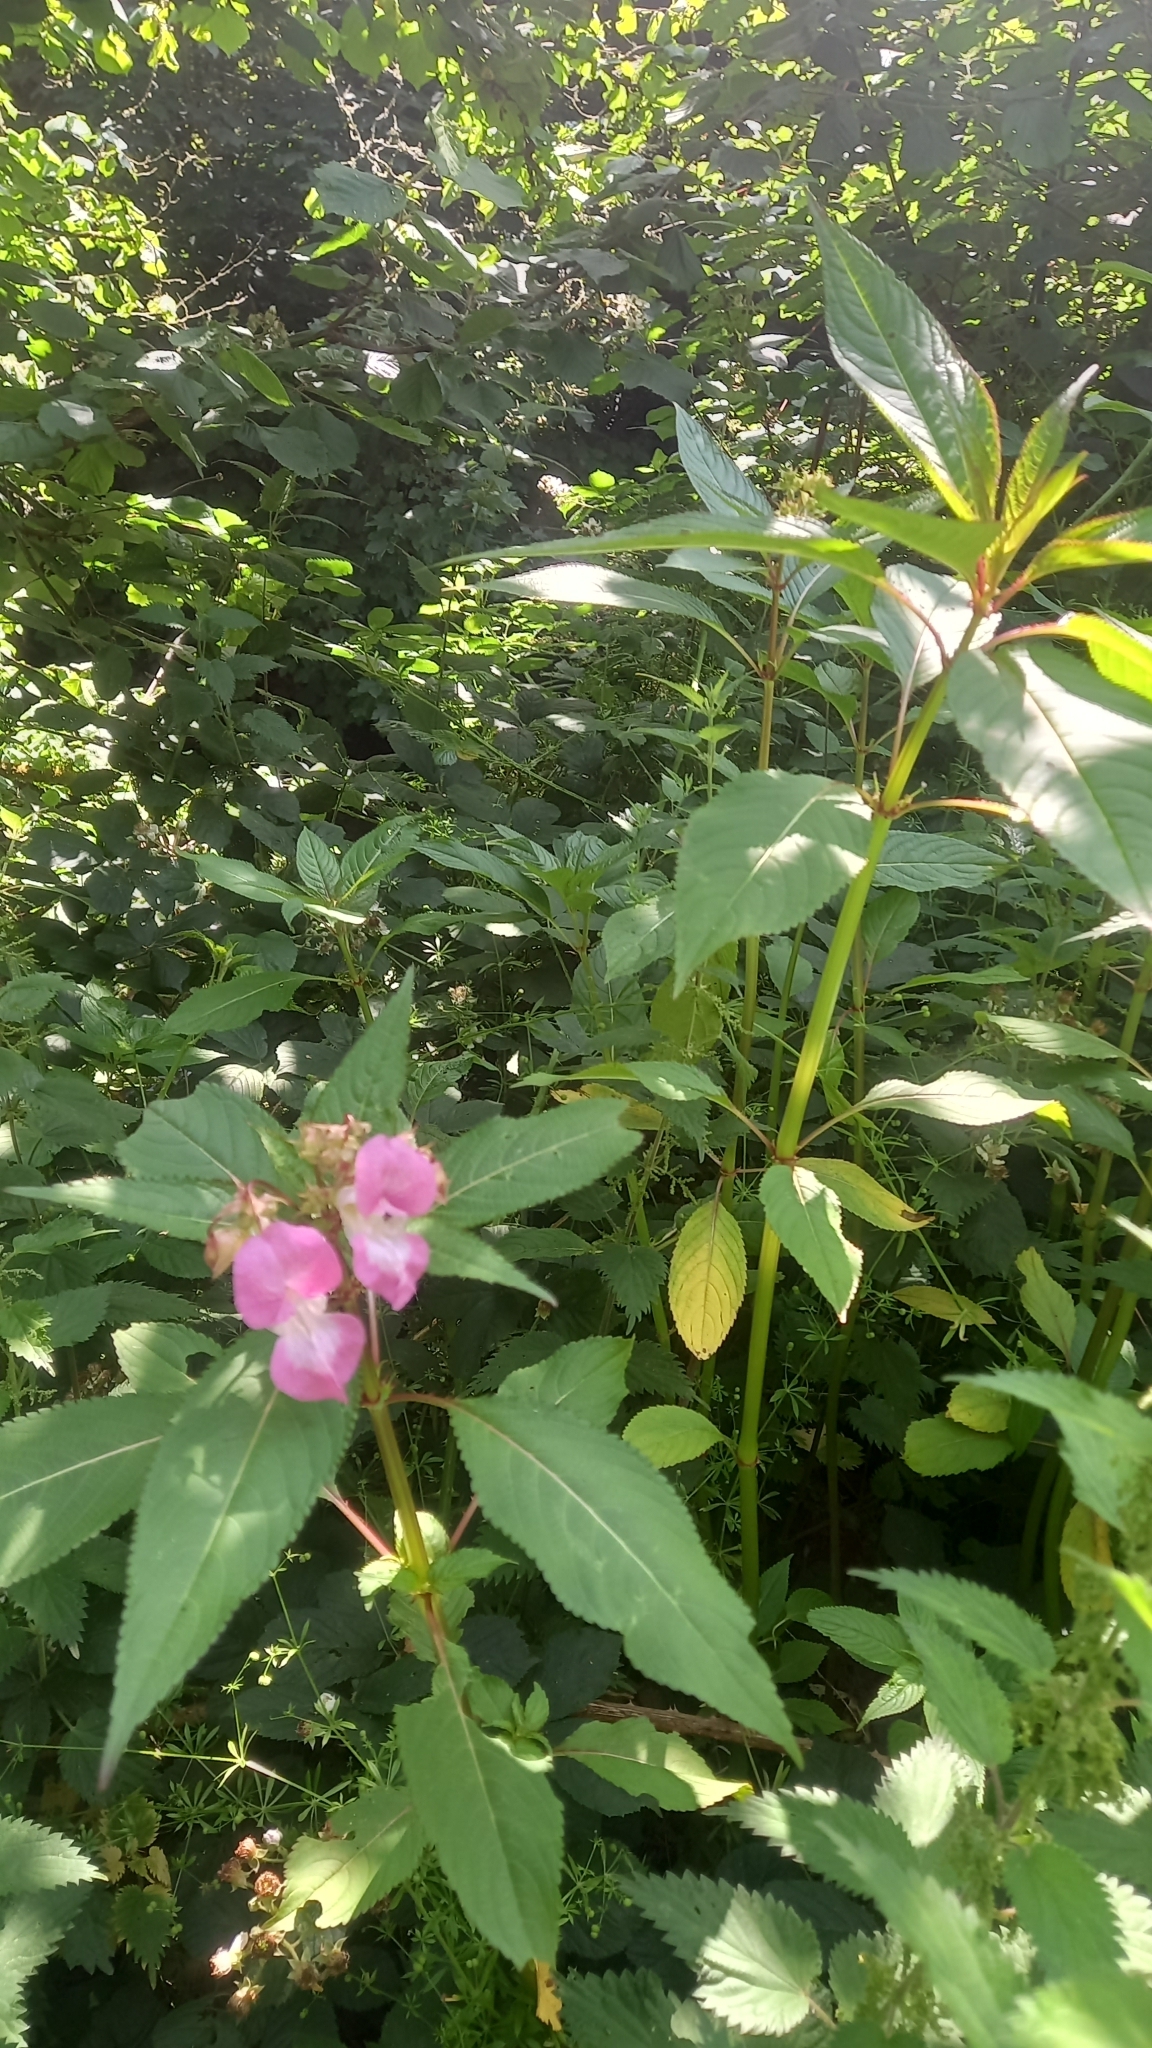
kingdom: Plantae
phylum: Tracheophyta
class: Magnoliopsida
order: Ericales
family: Balsaminaceae
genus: Impatiens
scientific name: Impatiens glandulifera
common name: Himalayan balsam
